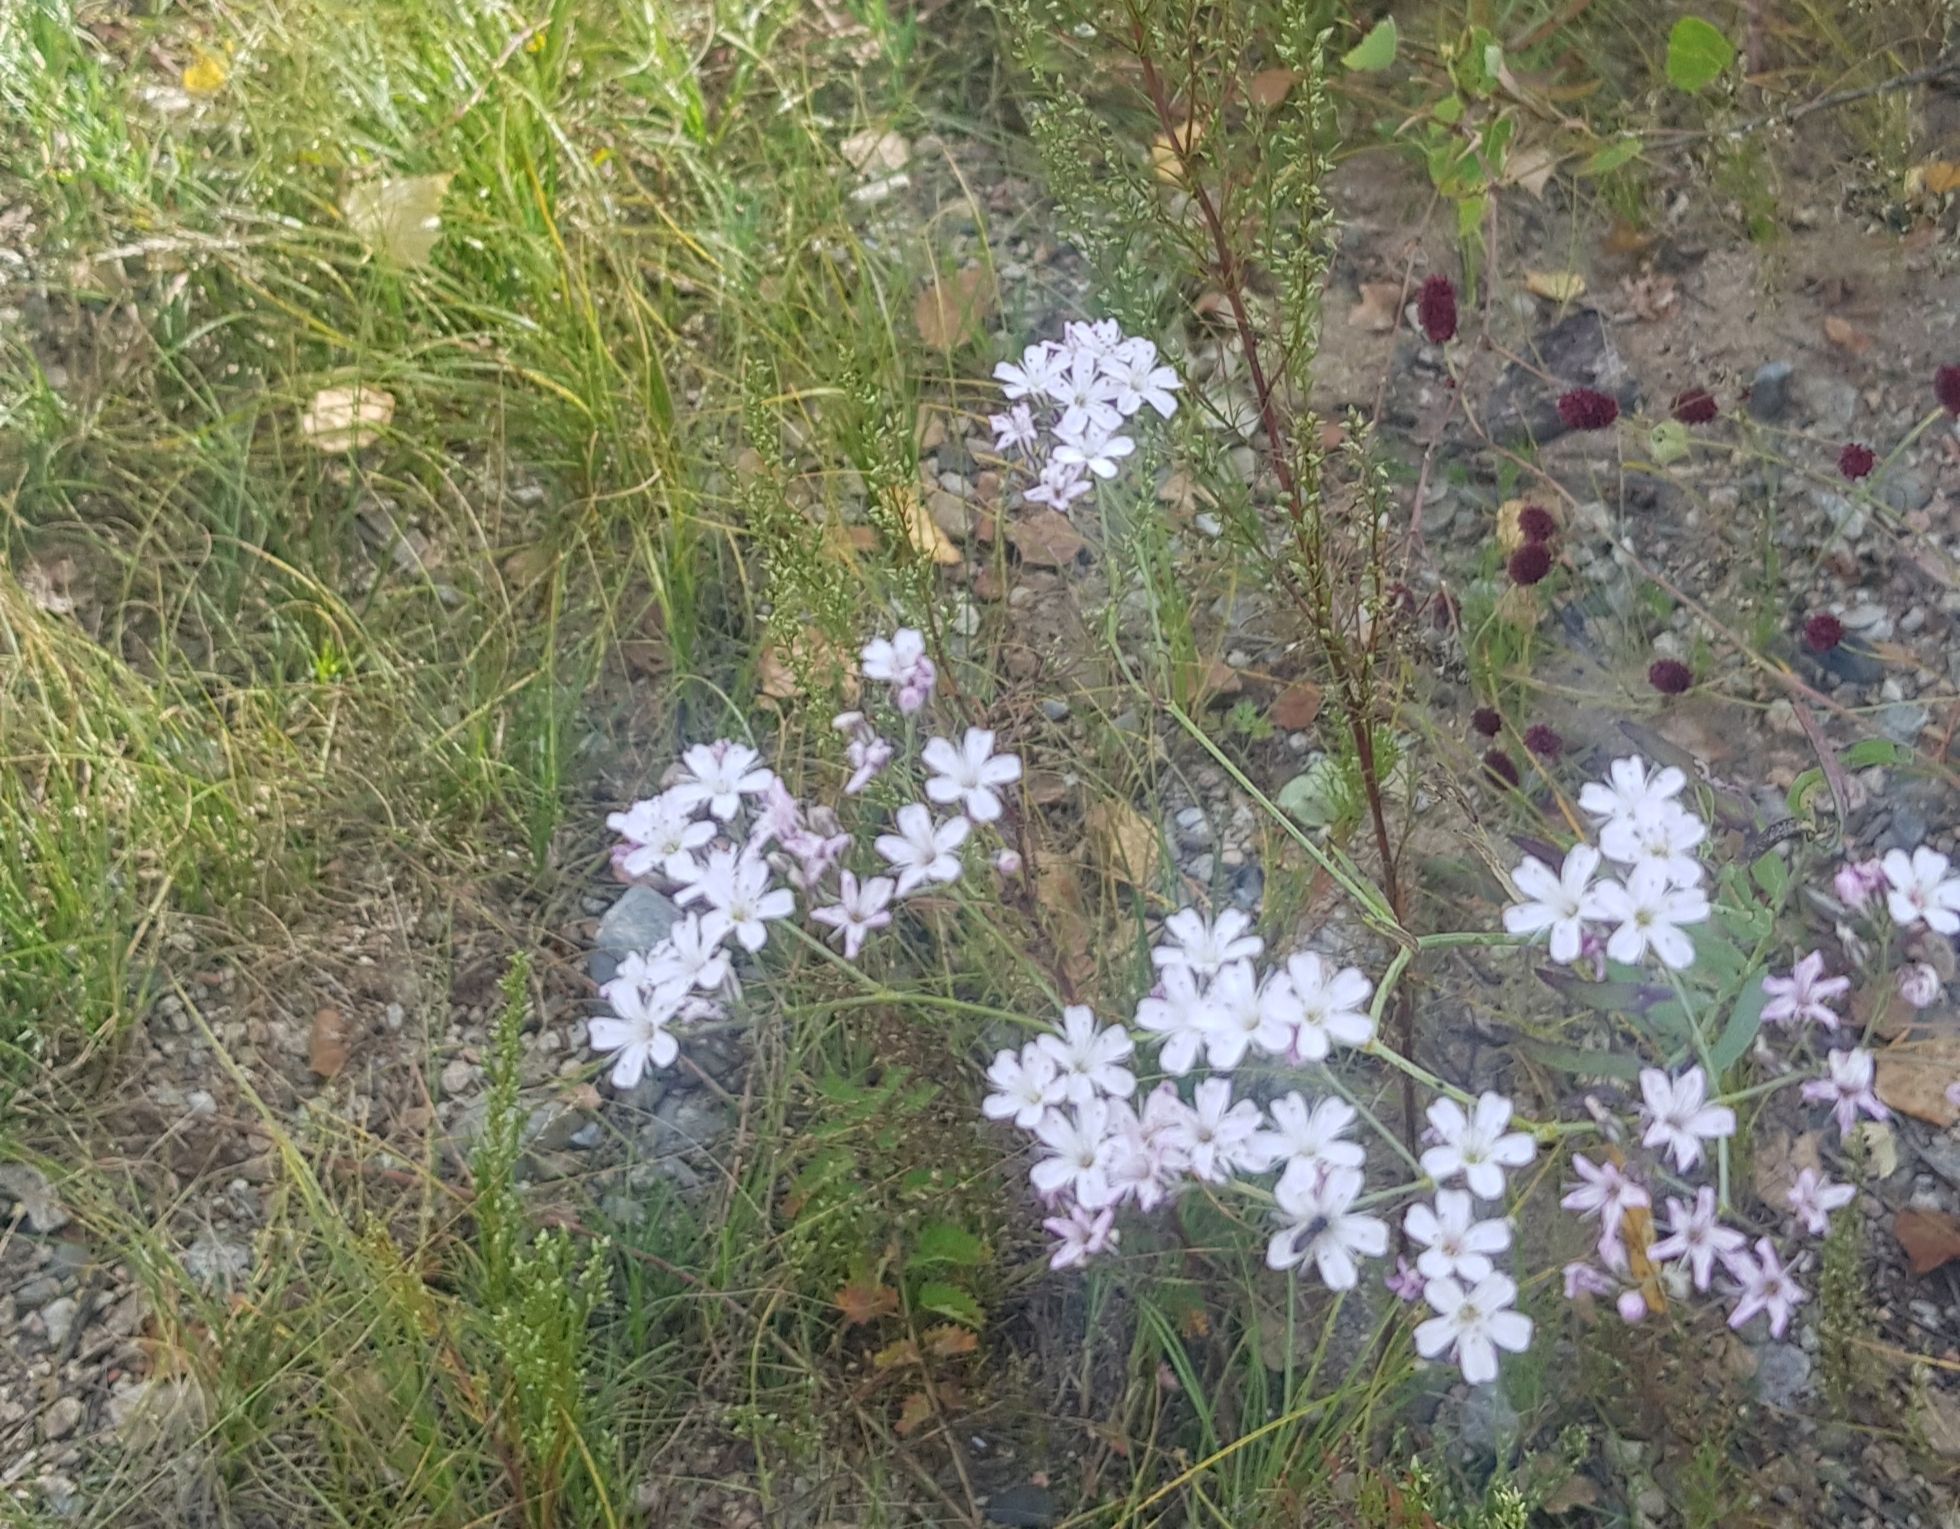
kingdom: Plantae
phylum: Tracheophyta
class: Magnoliopsida
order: Caryophyllales
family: Caryophyllaceae
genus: Gypsophila
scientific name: Gypsophila paniculata
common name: Baby's-breath
